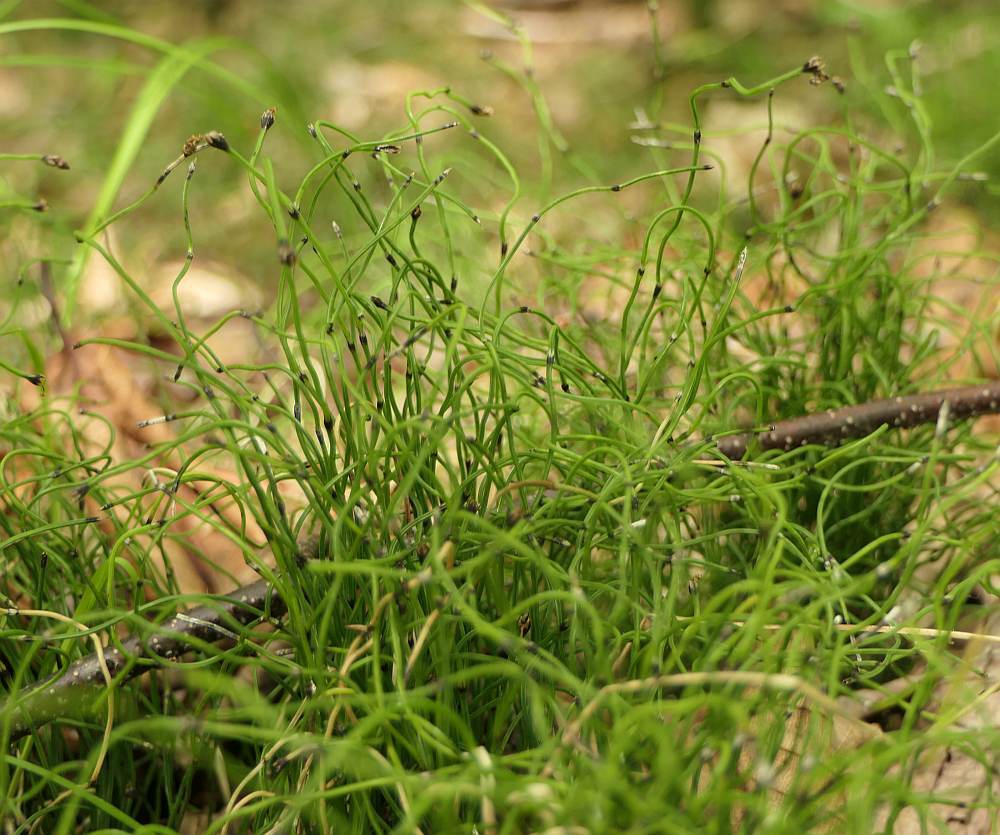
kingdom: Plantae
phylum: Tracheophyta
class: Polypodiopsida
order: Equisetales
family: Equisetaceae
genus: Equisetum
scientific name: Equisetum scirpoides
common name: Delicate horsetail
